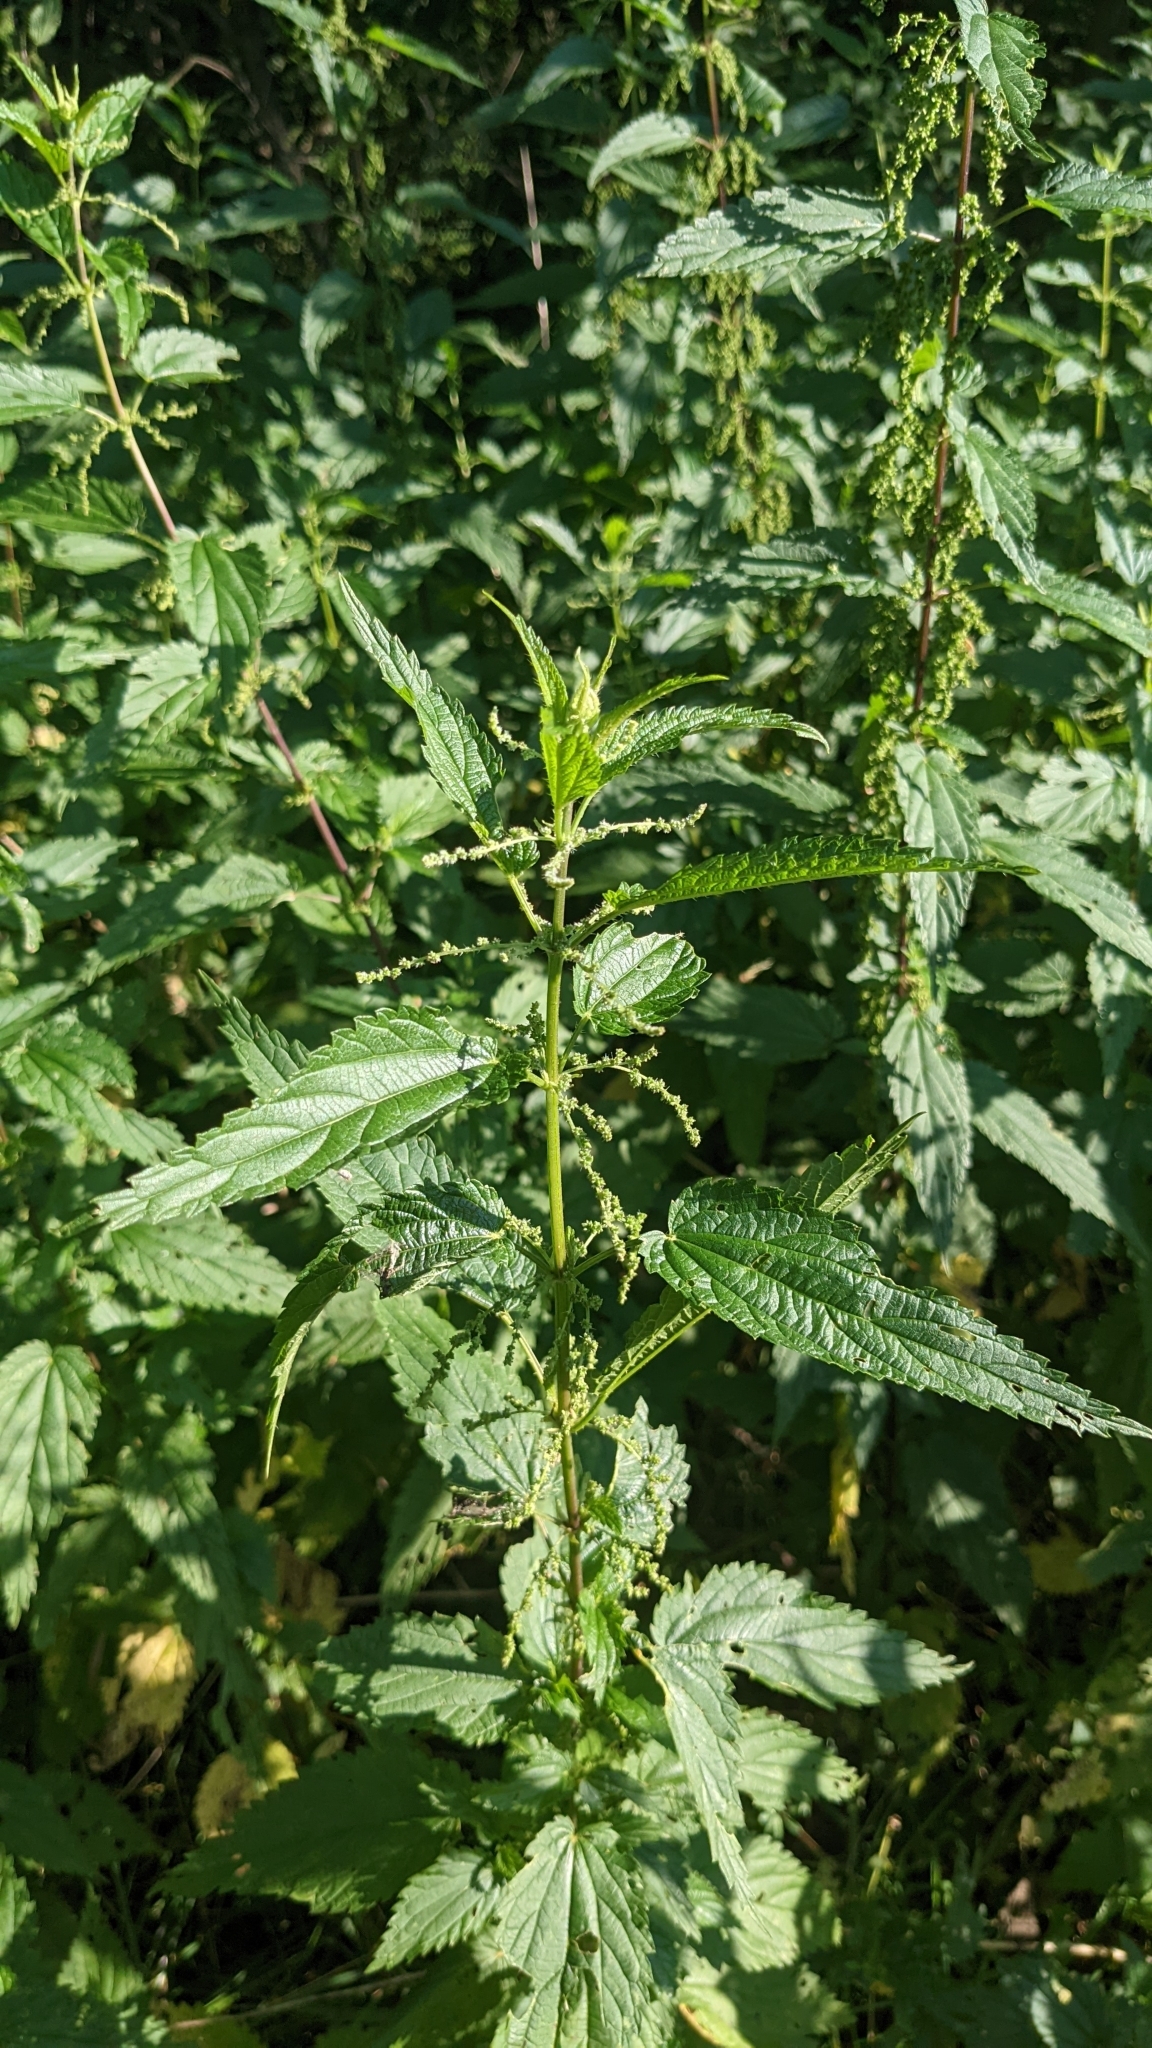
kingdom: Plantae
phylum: Tracheophyta
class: Magnoliopsida
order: Rosales
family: Urticaceae
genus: Urtica
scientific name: Urtica dioica
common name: Common nettle
